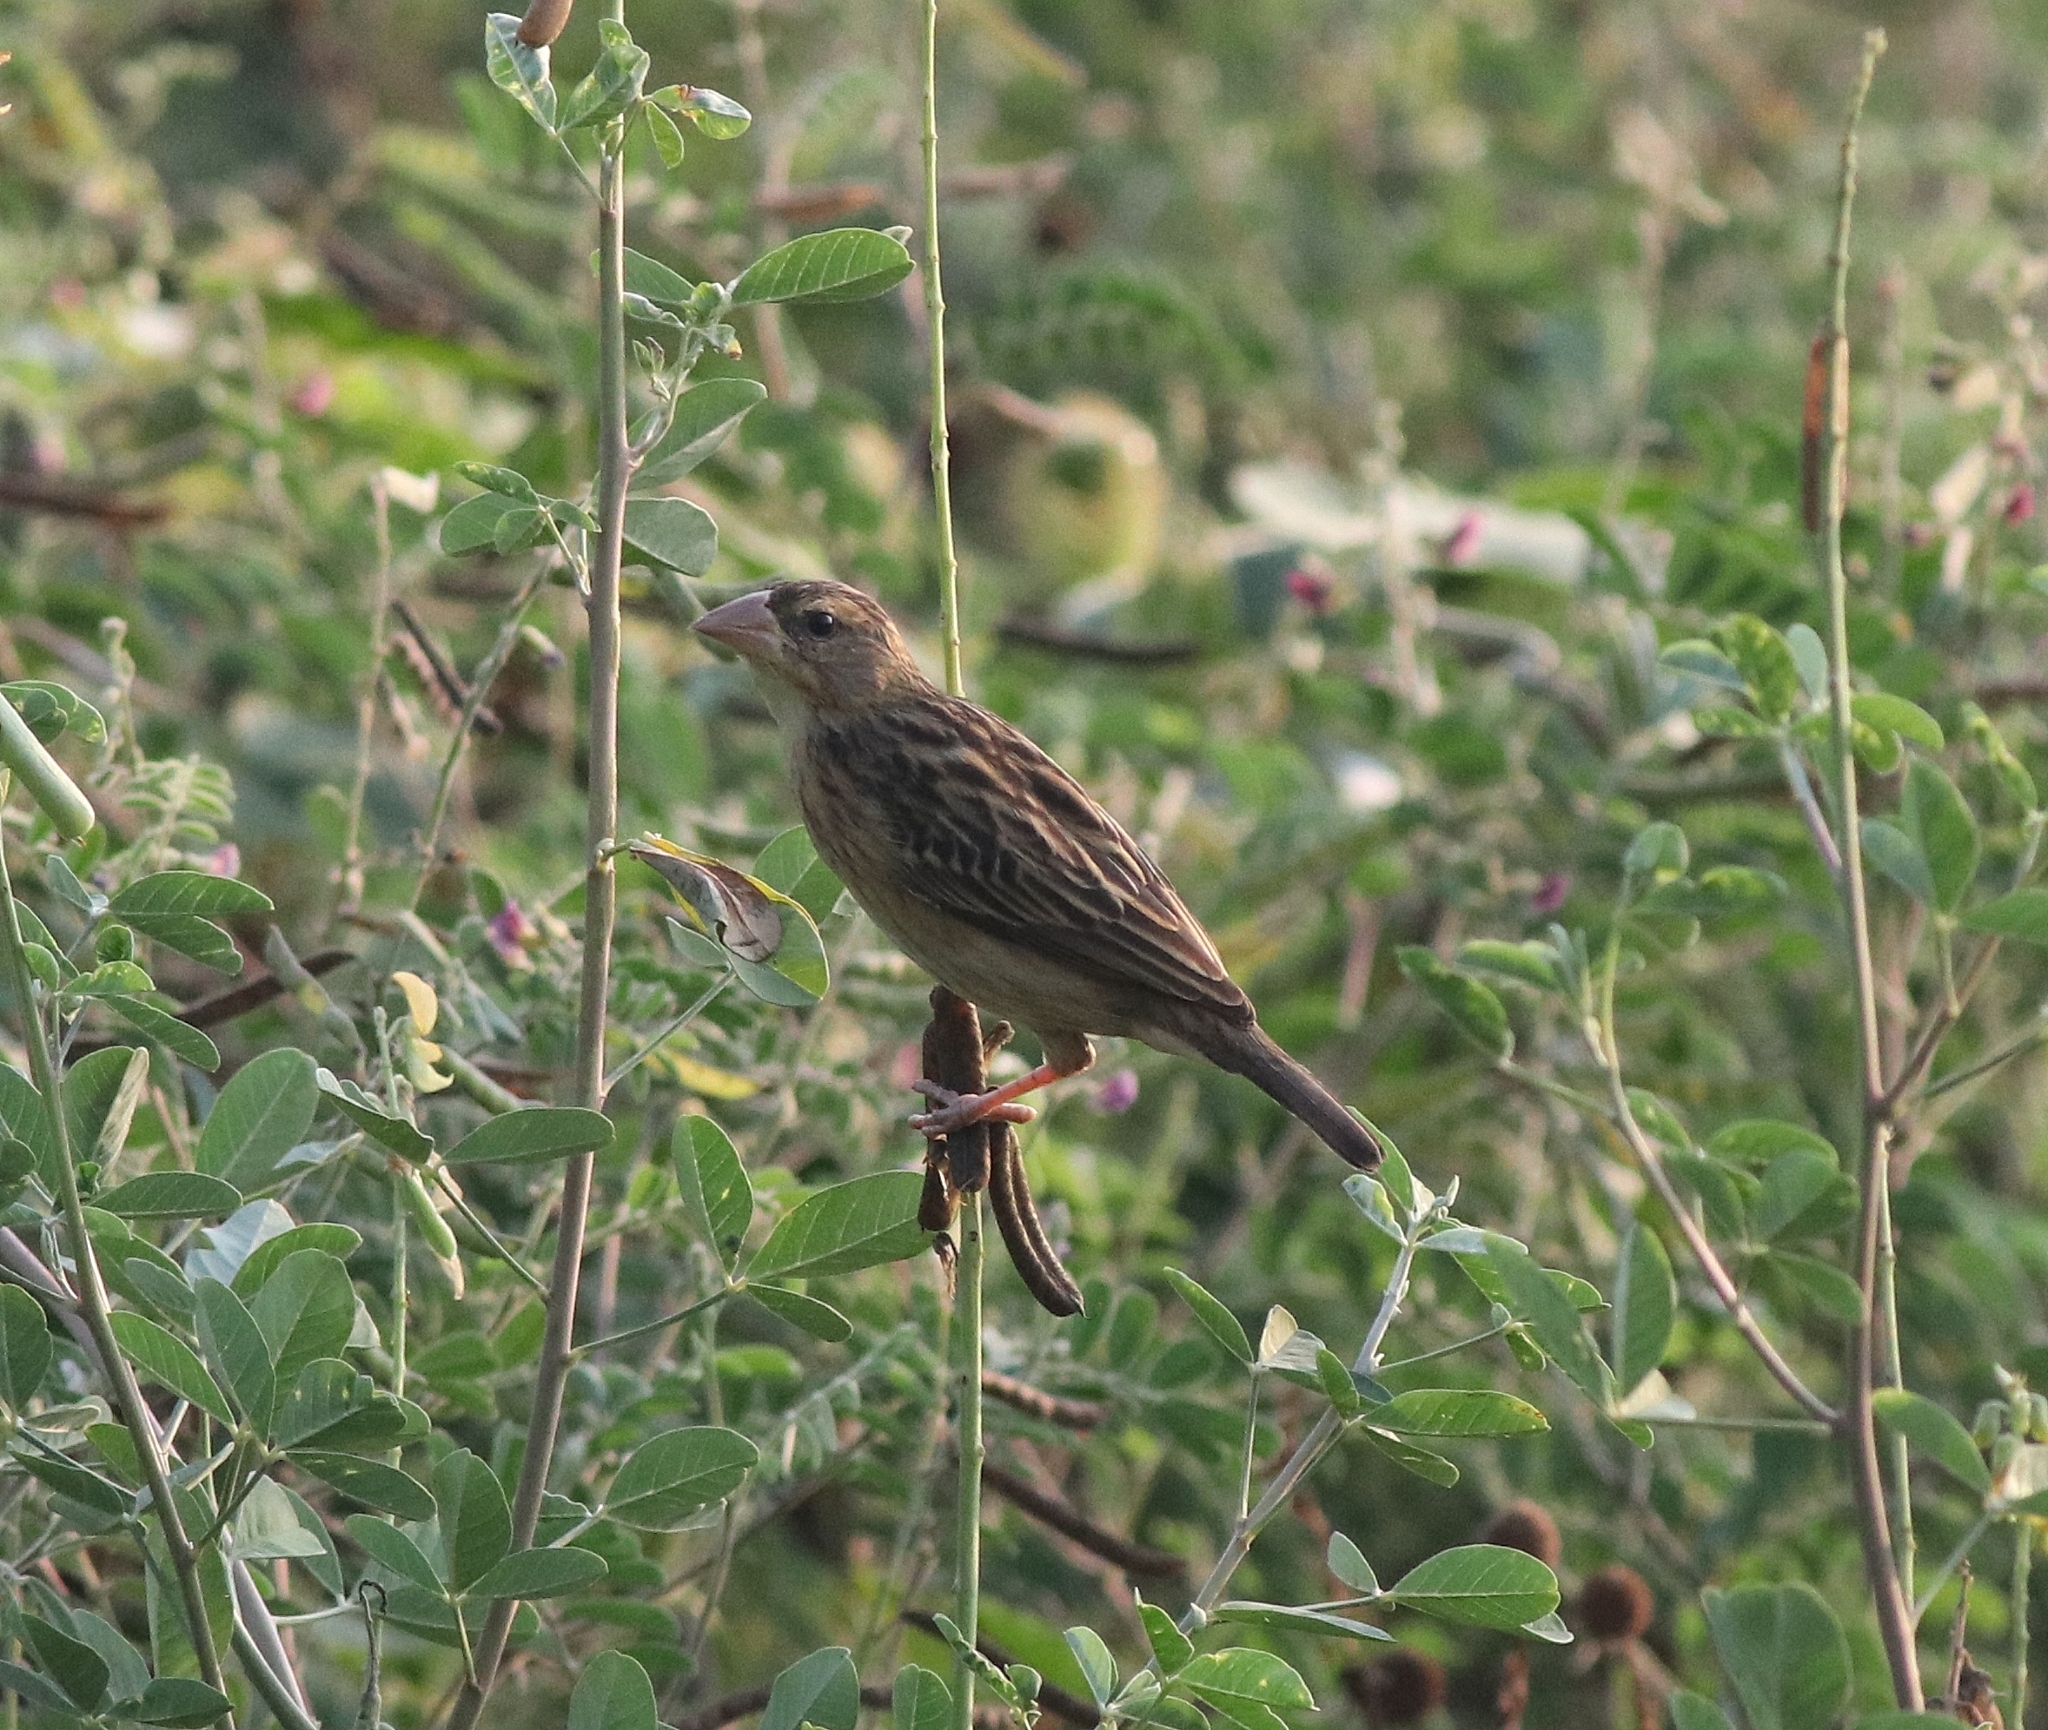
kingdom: Animalia
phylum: Chordata
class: Aves
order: Passeriformes
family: Ploceidae
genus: Ploceus
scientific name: Ploceus philippinus
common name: Baya weaver
